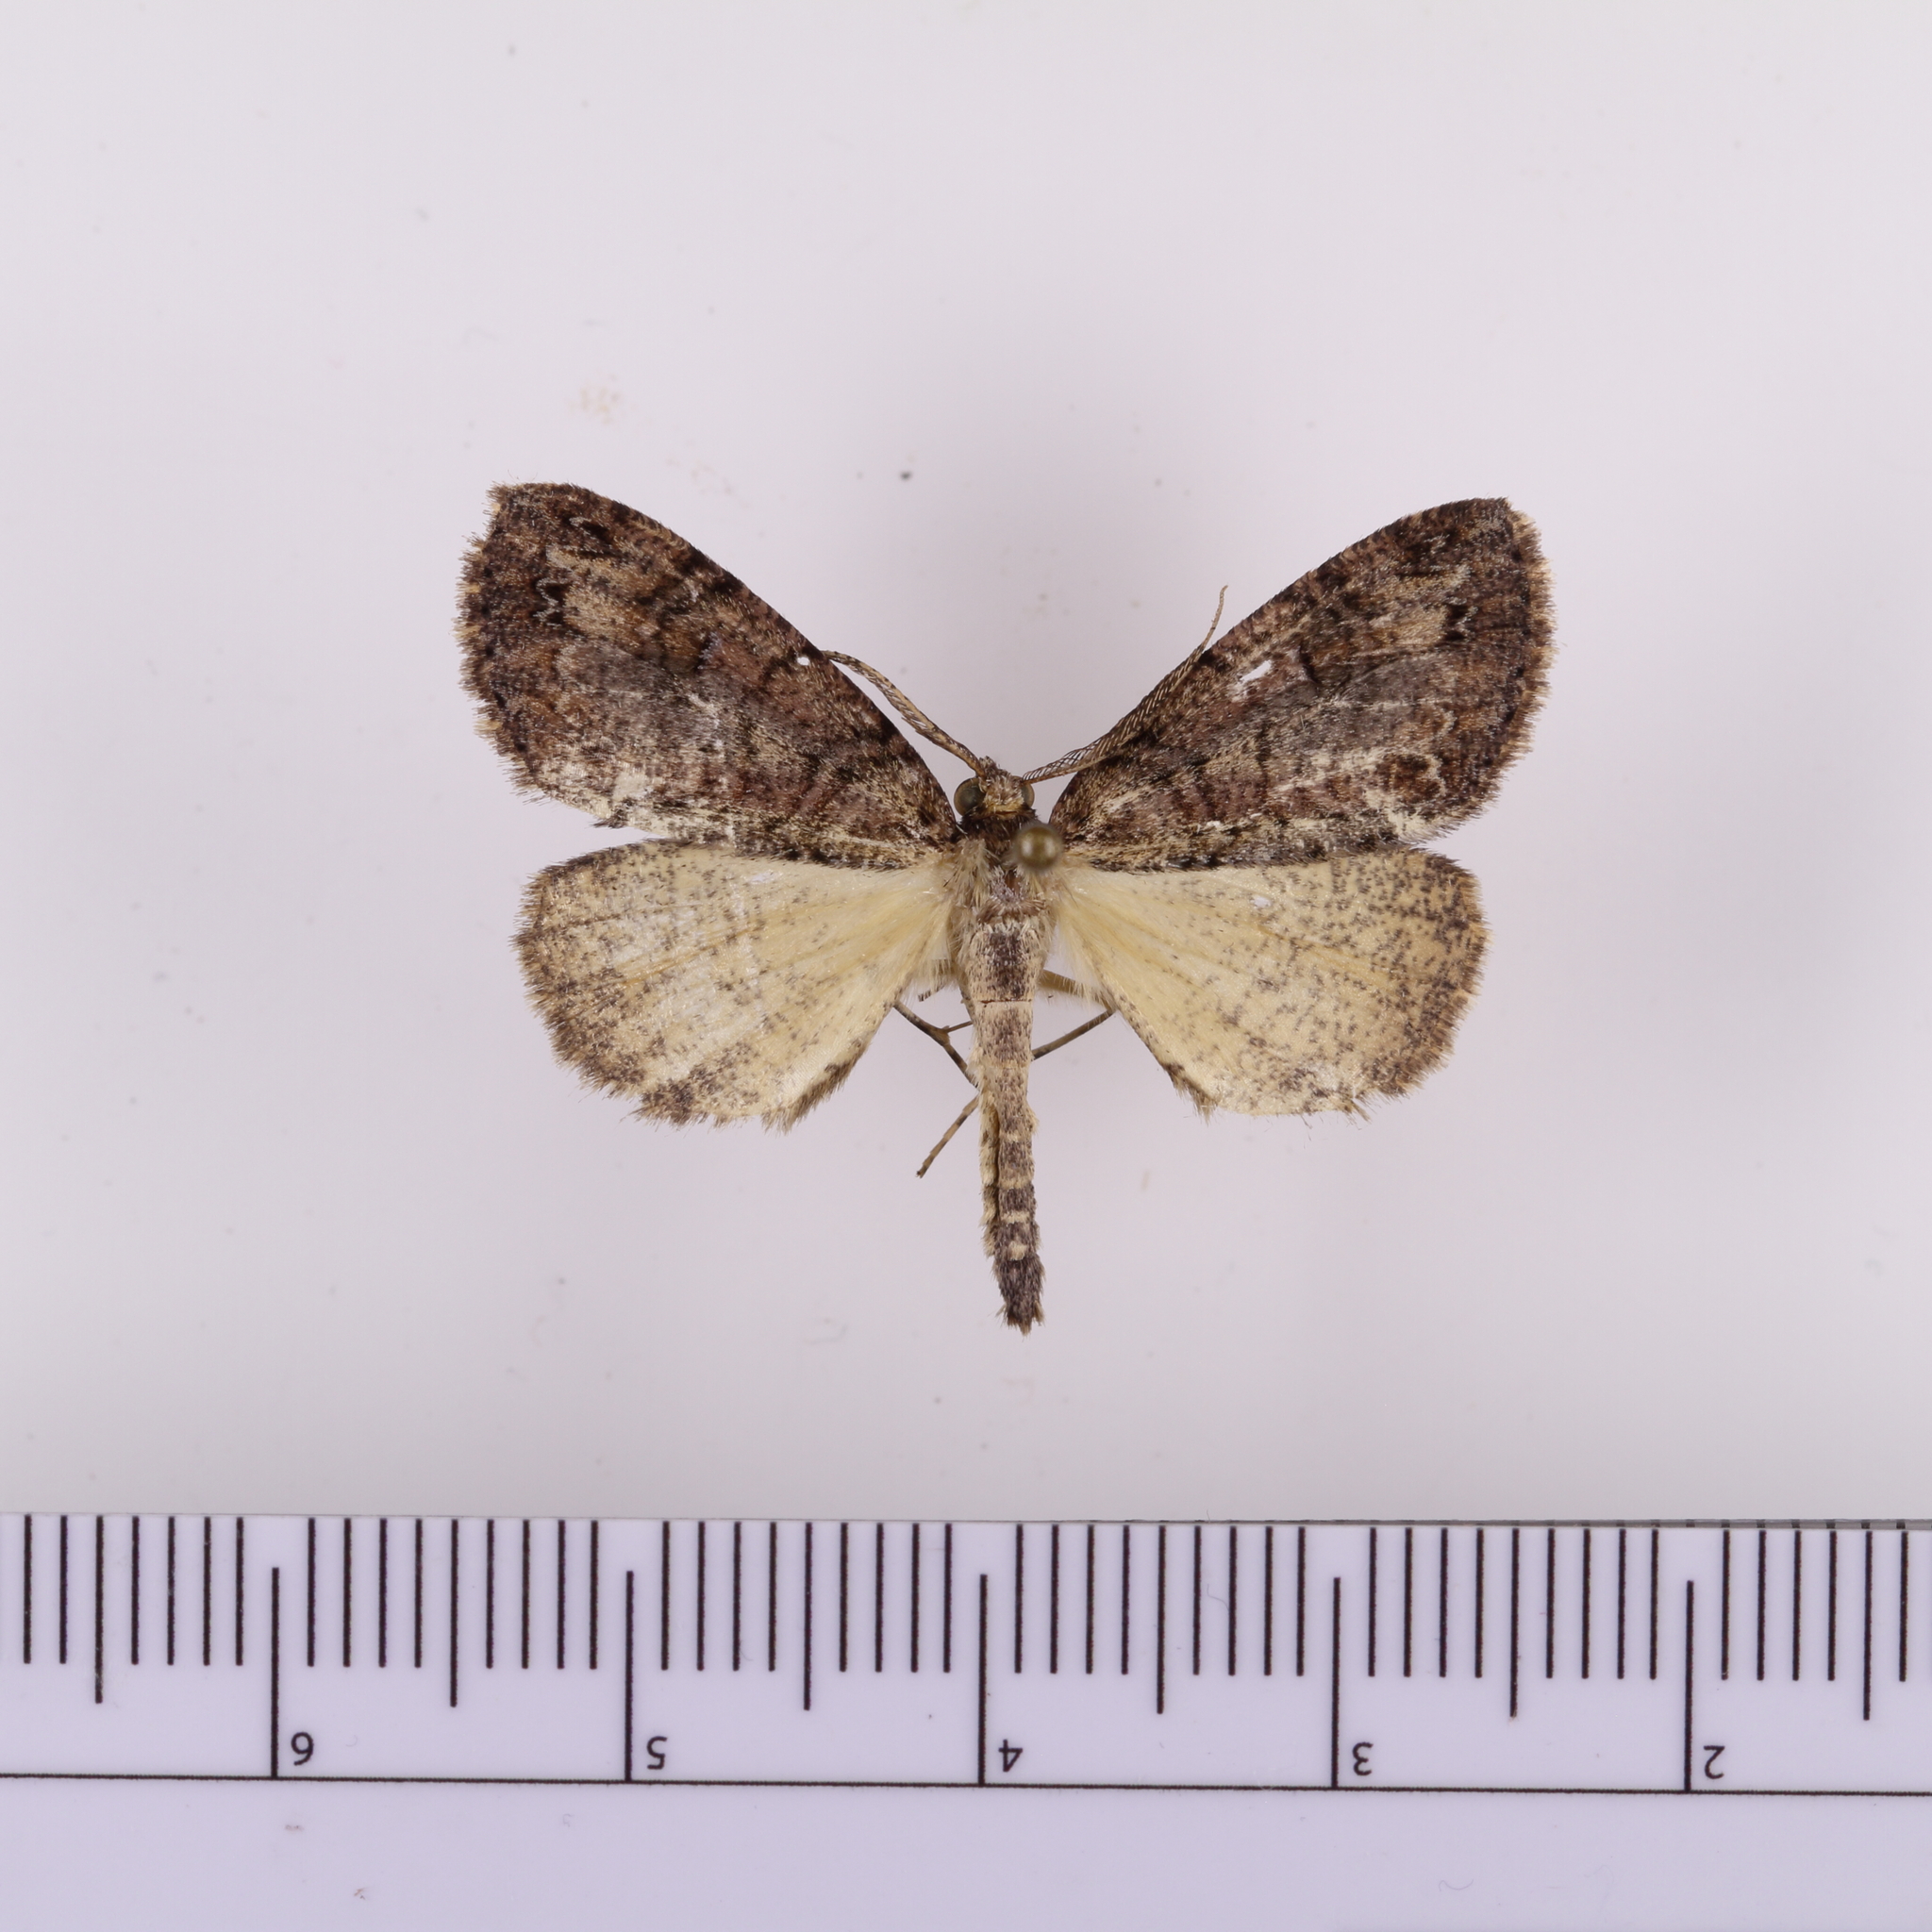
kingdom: Animalia
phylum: Arthropoda
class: Insecta
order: Lepidoptera
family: Geometridae
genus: Pseudocoremia
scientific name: Pseudocoremia suavis
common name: Common forest looper
